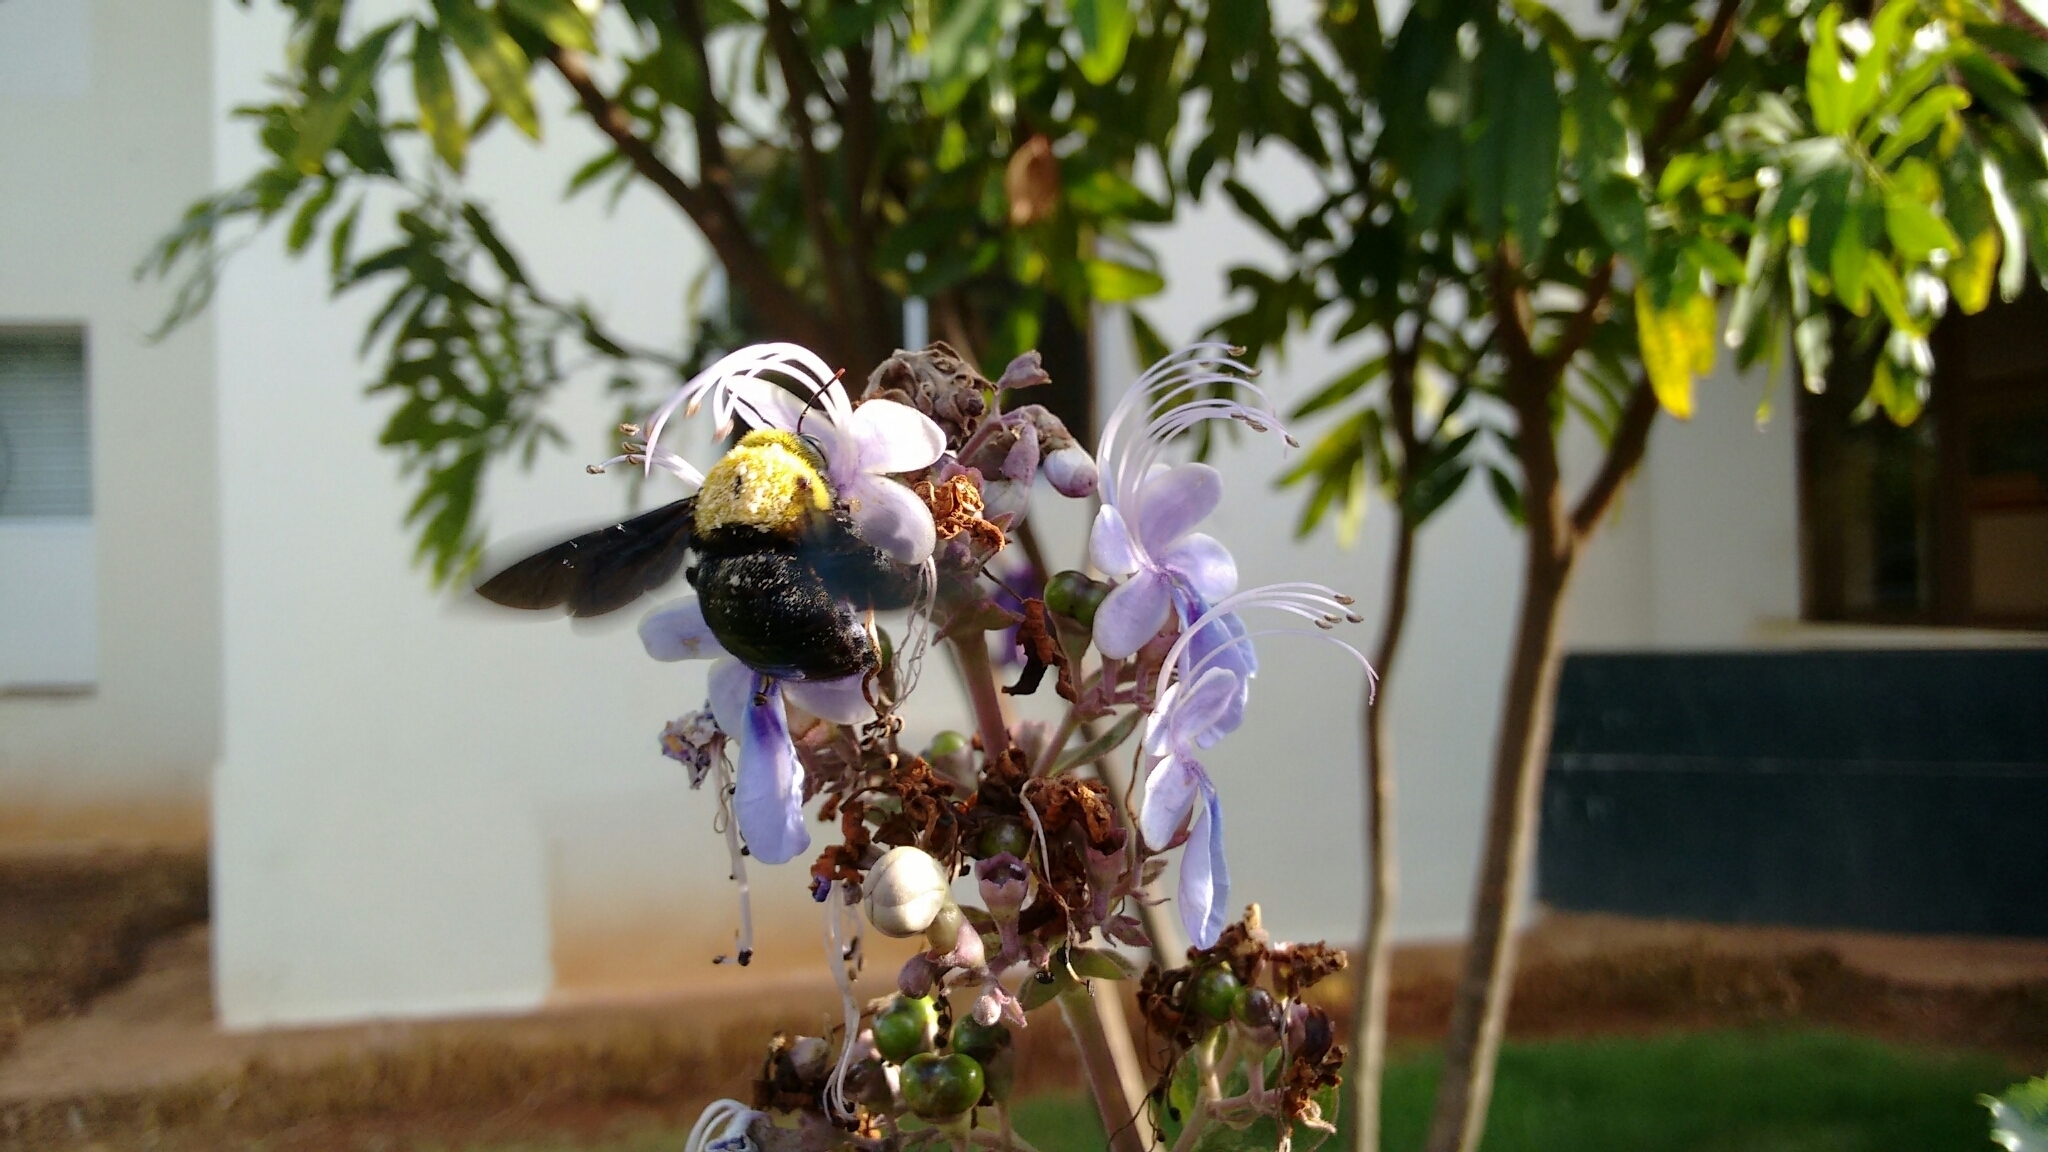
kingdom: Animalia
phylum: Arthropoda
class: Insecta
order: Hymenoptera
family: Apidae
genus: Xylocopa
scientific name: Xylocopa ruficornis
